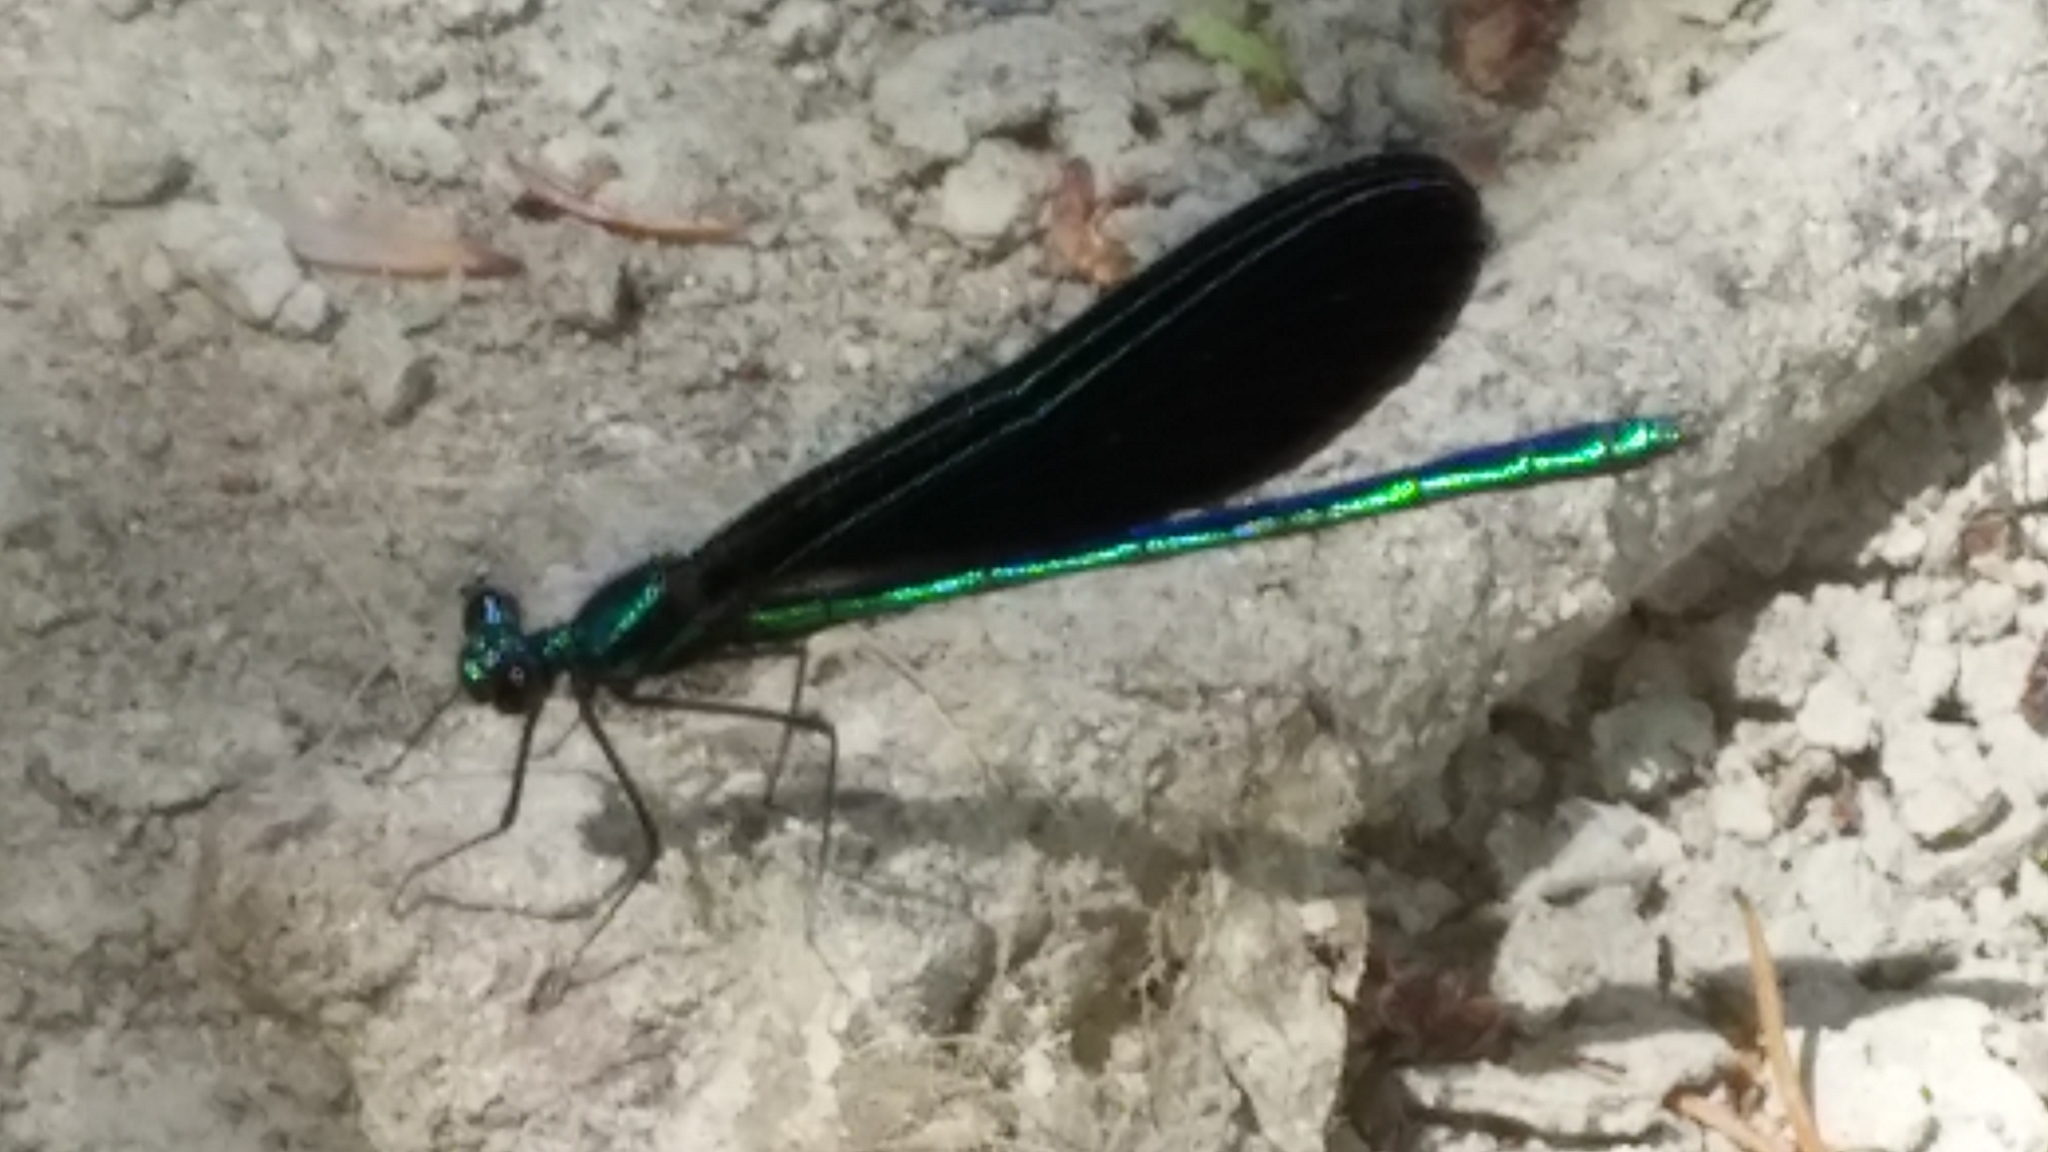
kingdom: Animalia
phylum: Arthropoda
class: Insecta
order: Odonata
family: Calopterygidae
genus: Calopteryx
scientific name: Calopteryx maculata
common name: Ebony jewelwing
